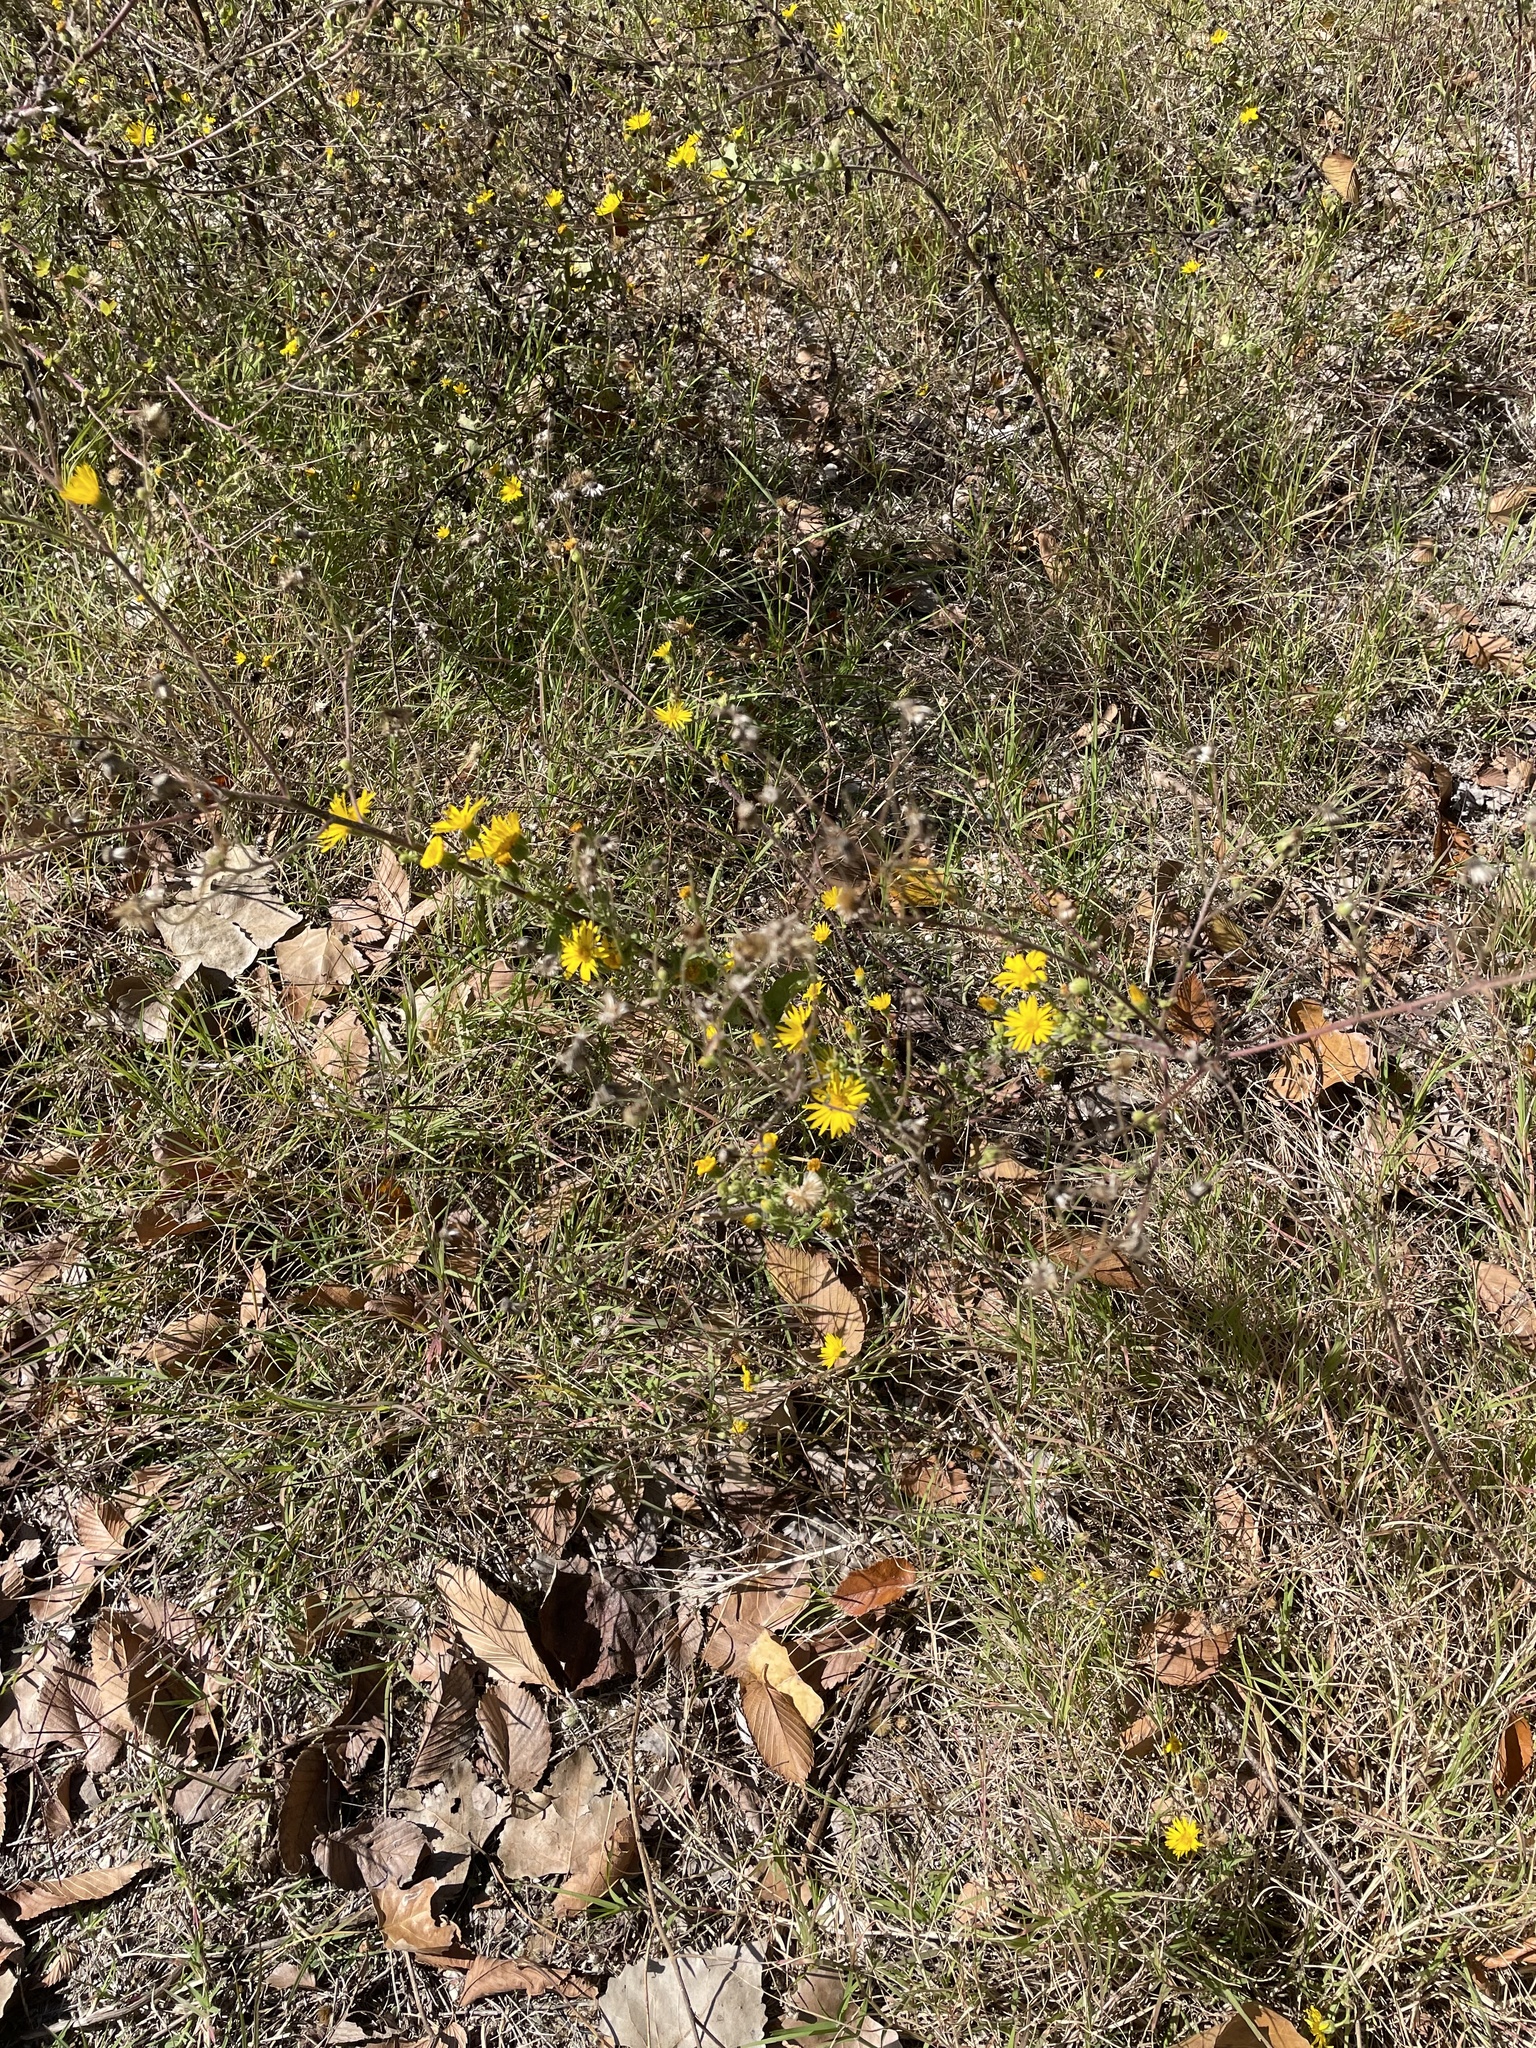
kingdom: Plantae
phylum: Tracheophyta
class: Magnoliopsida
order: Asterales
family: Asteraceae
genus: Heterotheca
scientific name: Heterotheca subaxillaris
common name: Camphorweed
